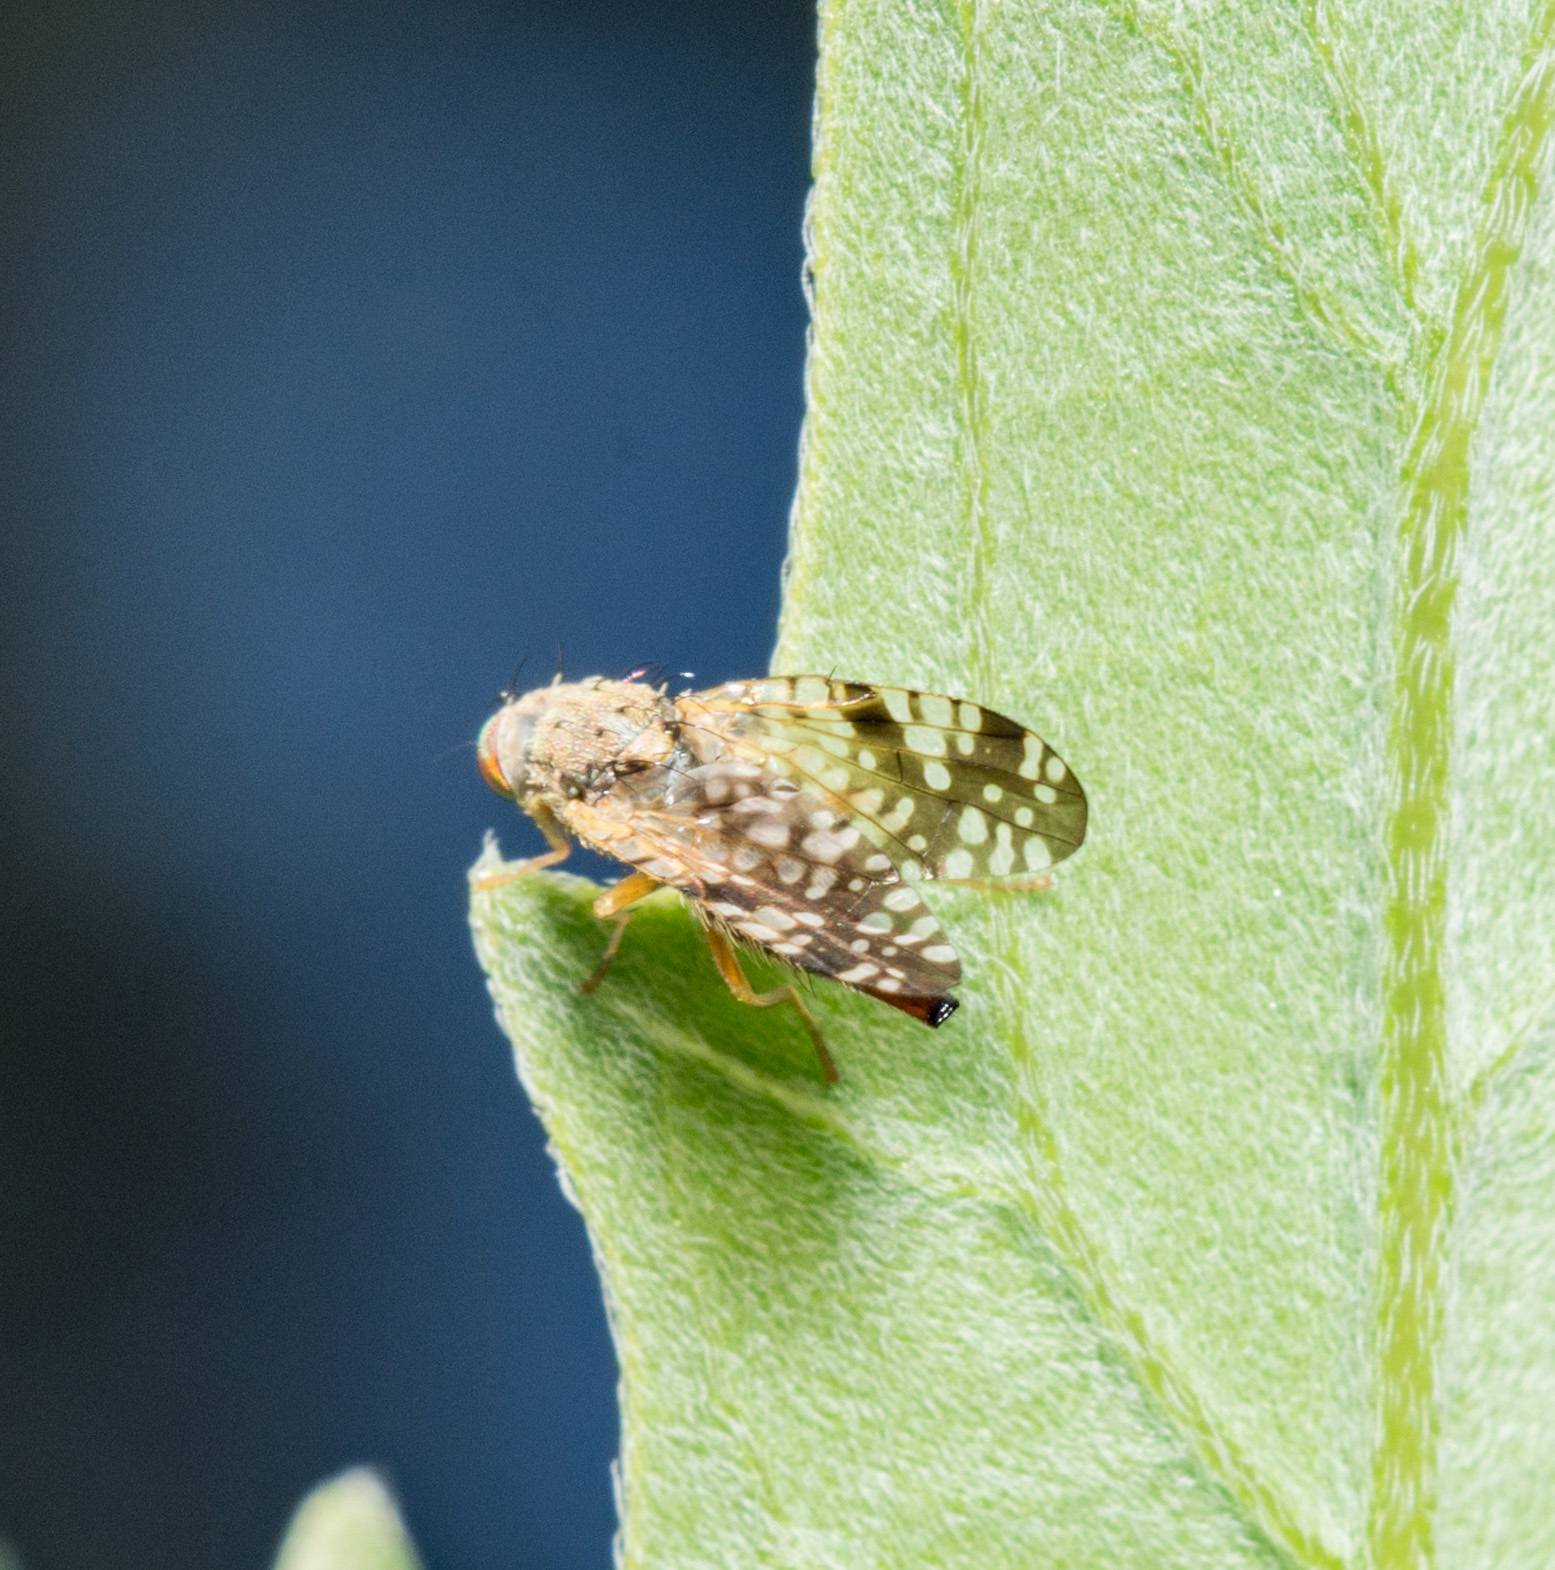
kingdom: Animalia
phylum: Arthropoda
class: Insecta
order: Diptera
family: Tephritidae
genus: Neotephritis
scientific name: Neotephritis finalis
